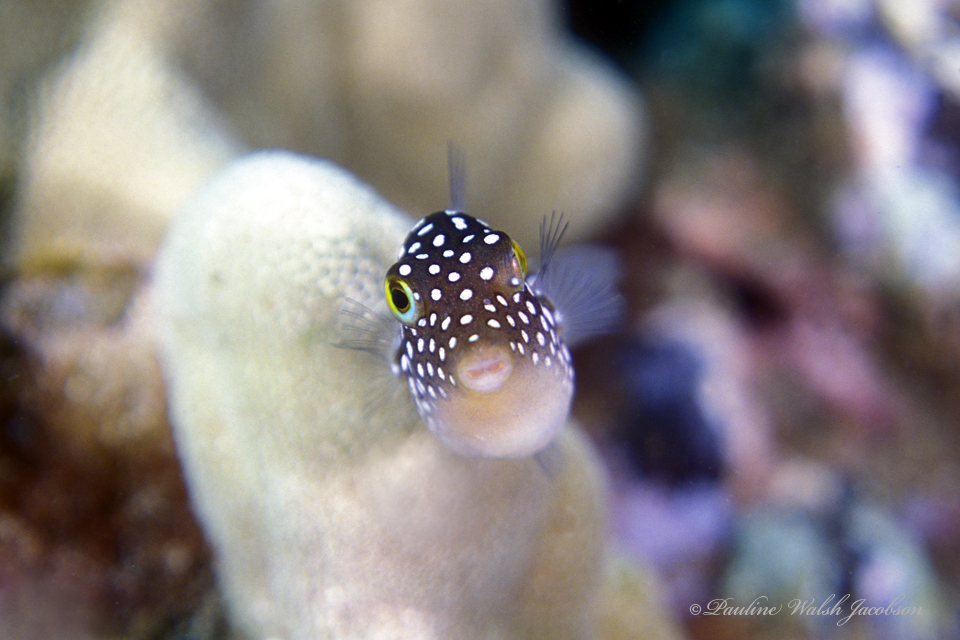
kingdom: Animalia
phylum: Chordata
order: Tetraodontiformes
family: Tetraodontidae
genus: Canthigaster
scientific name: Canthigaster jactator
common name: Hawaiian whitespotted toby
